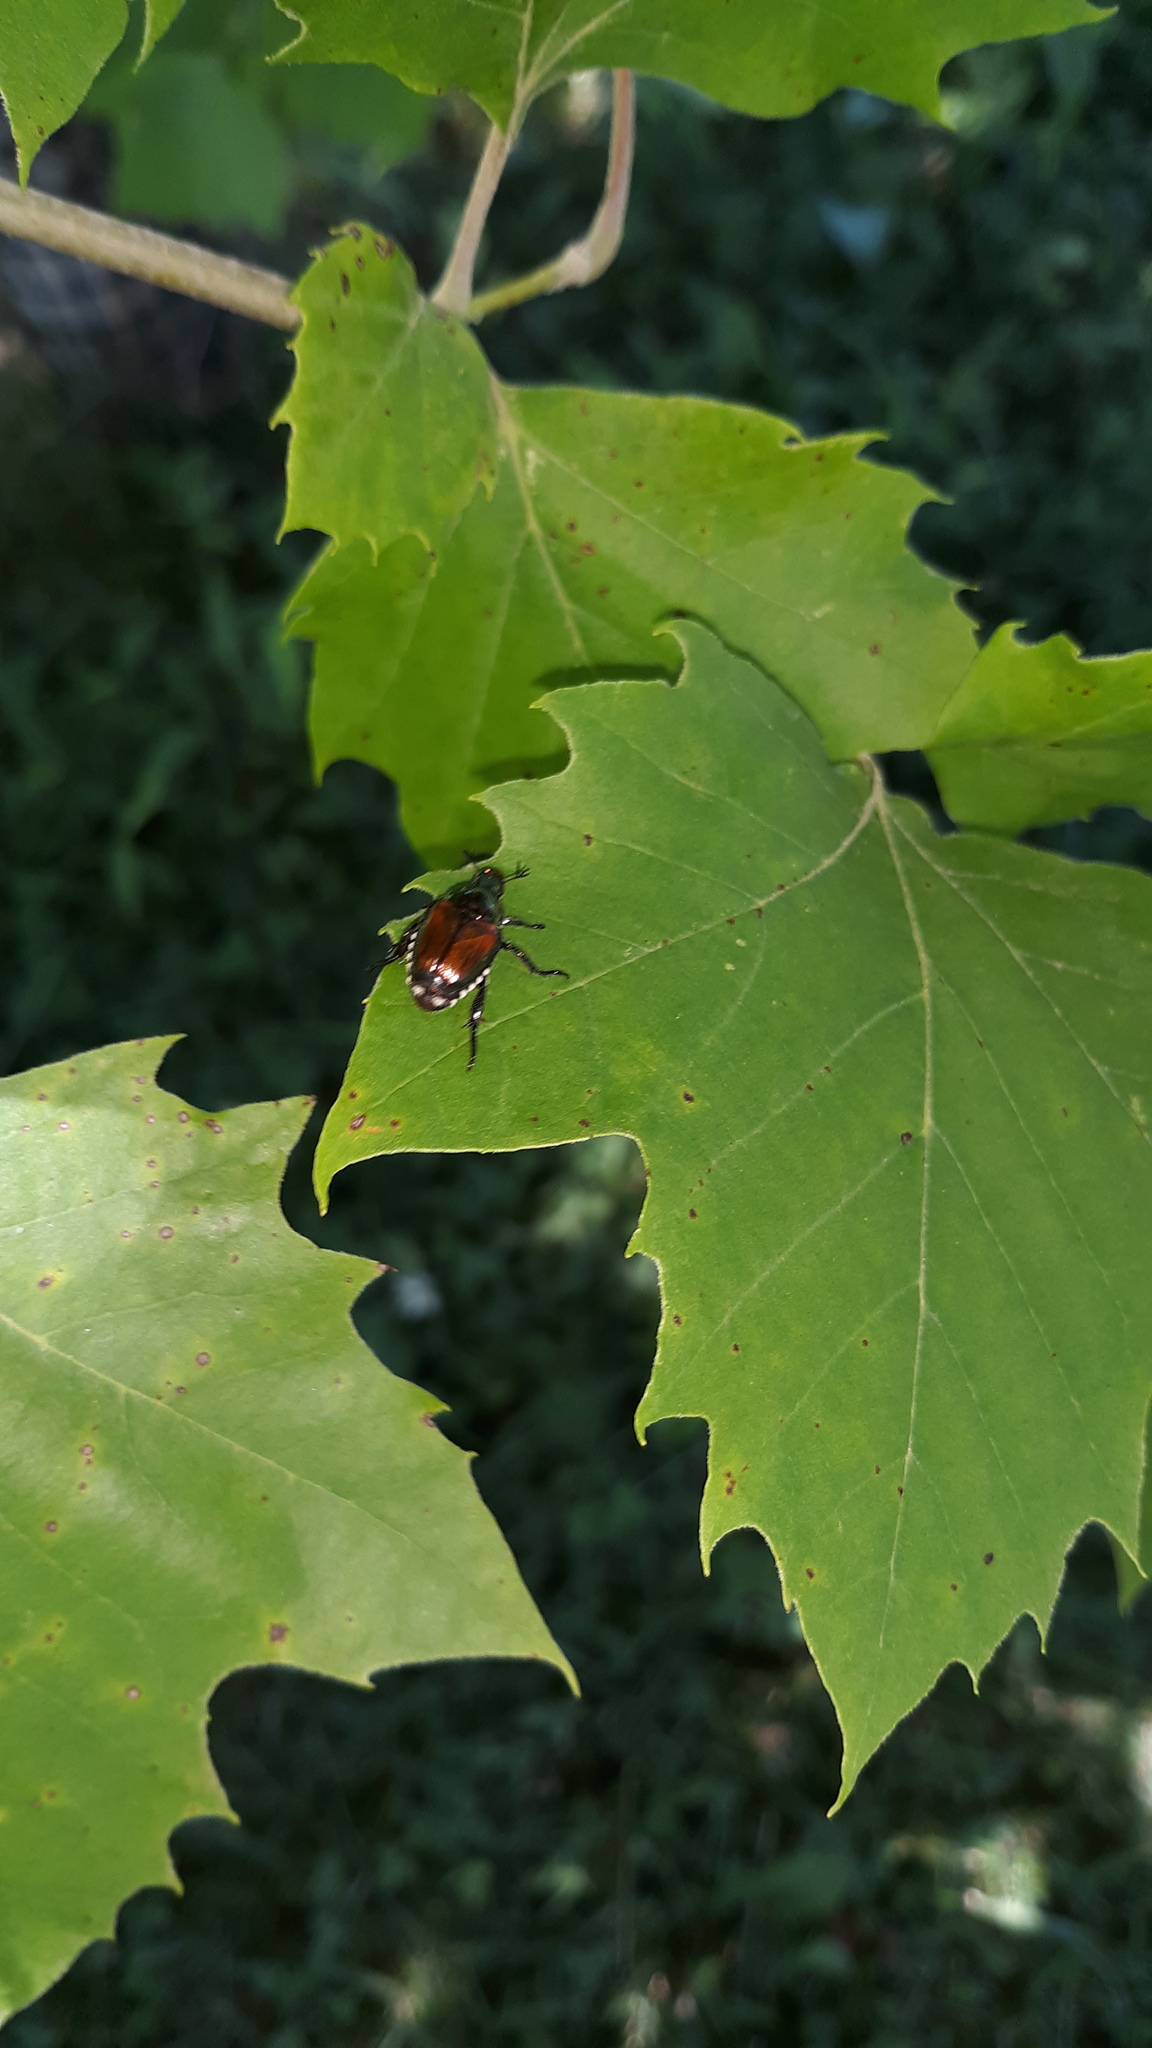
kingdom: Animalia
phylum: Arthropoda
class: Insecta
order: Coleoptera
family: Scarabaeidae
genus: Popillia
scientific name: Popillia japonica
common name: Japanese beetle
